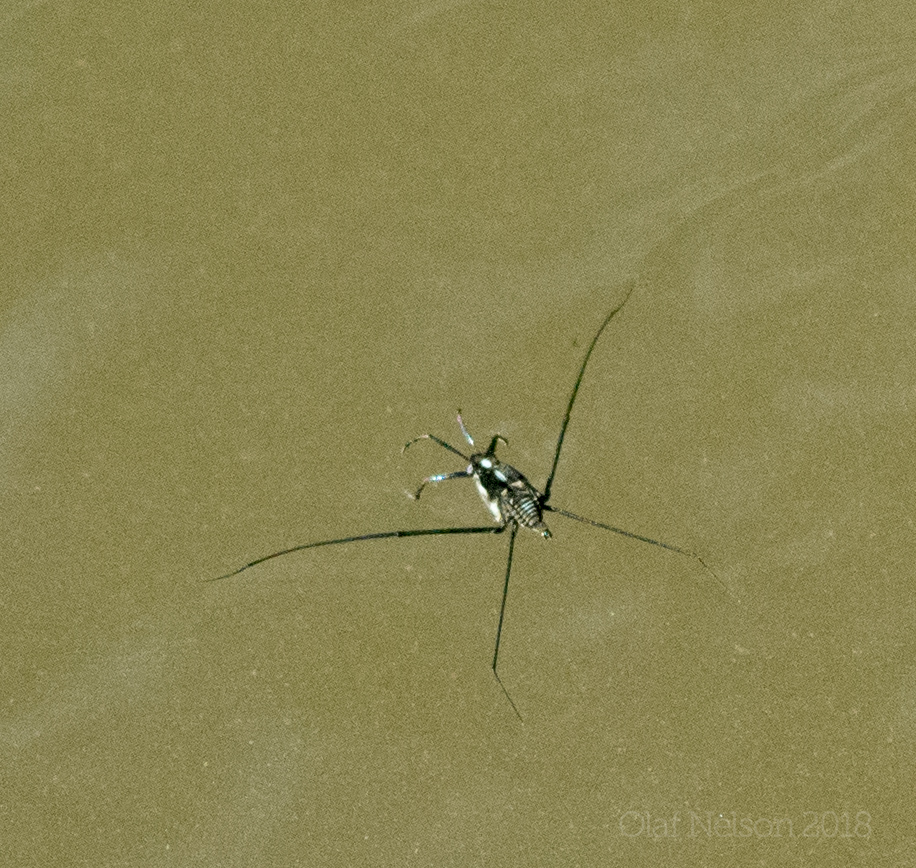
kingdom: Animalia
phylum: Arthropoda
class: Insecta
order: Hemiptera
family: Gerridae
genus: Metrobates
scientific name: Metrobates
